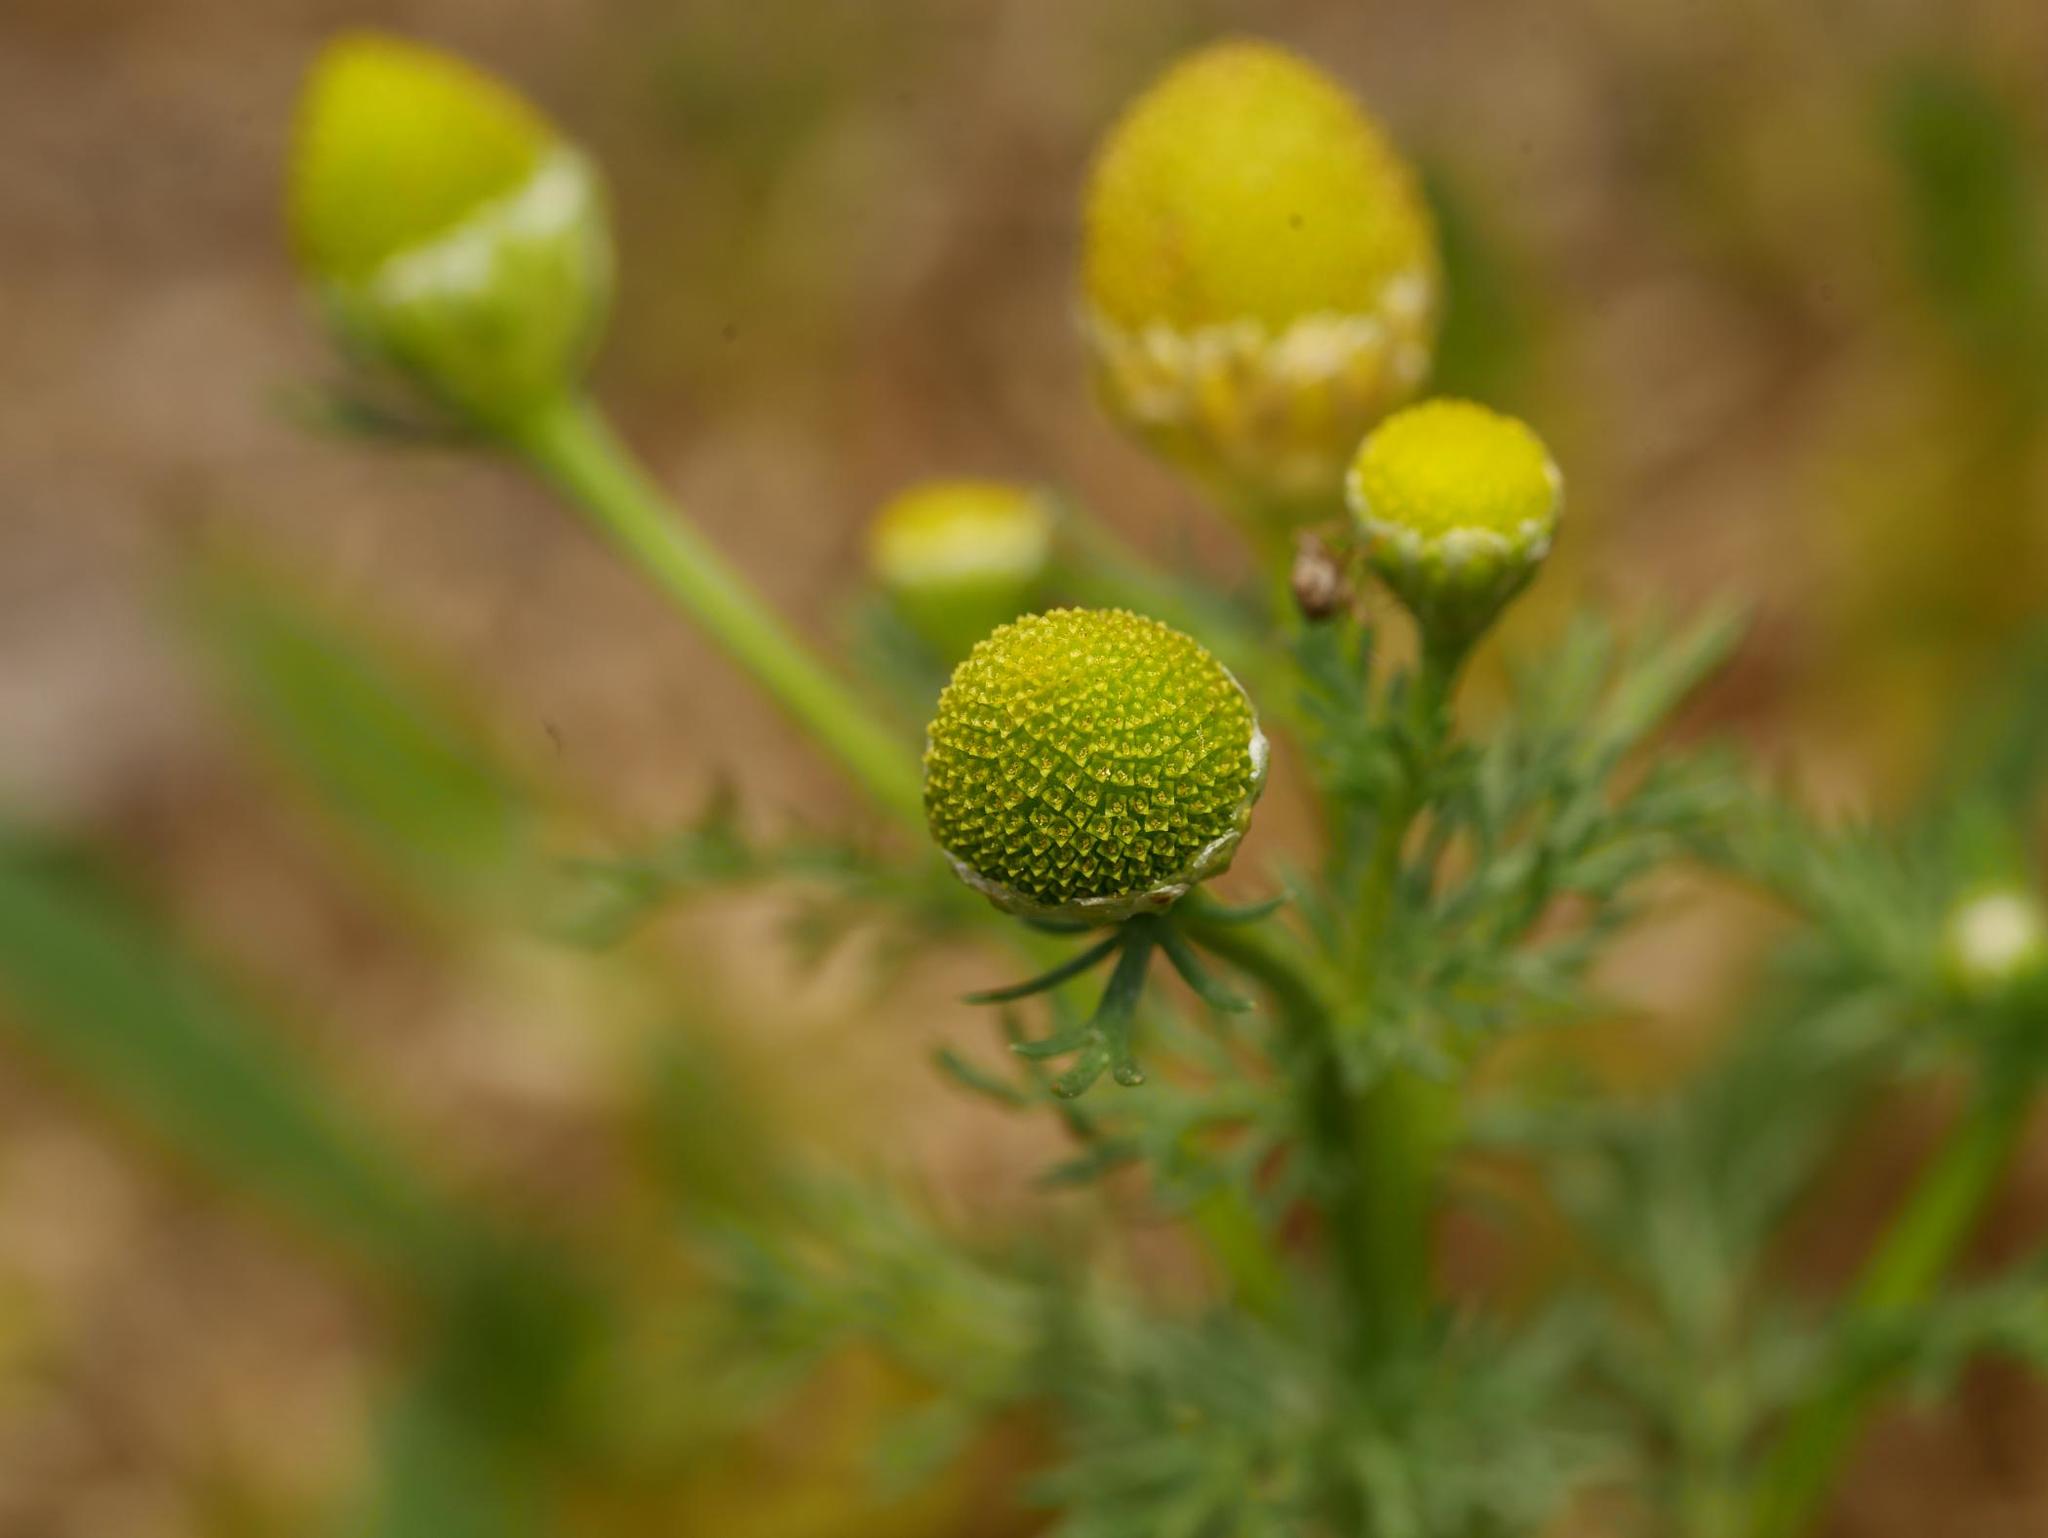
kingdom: Plantae
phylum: Tracheophyta
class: Magnoliopsida
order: Asterales
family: Asteraceae
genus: Matricaria
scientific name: Matricaria discoidea
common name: Disc mayweed
